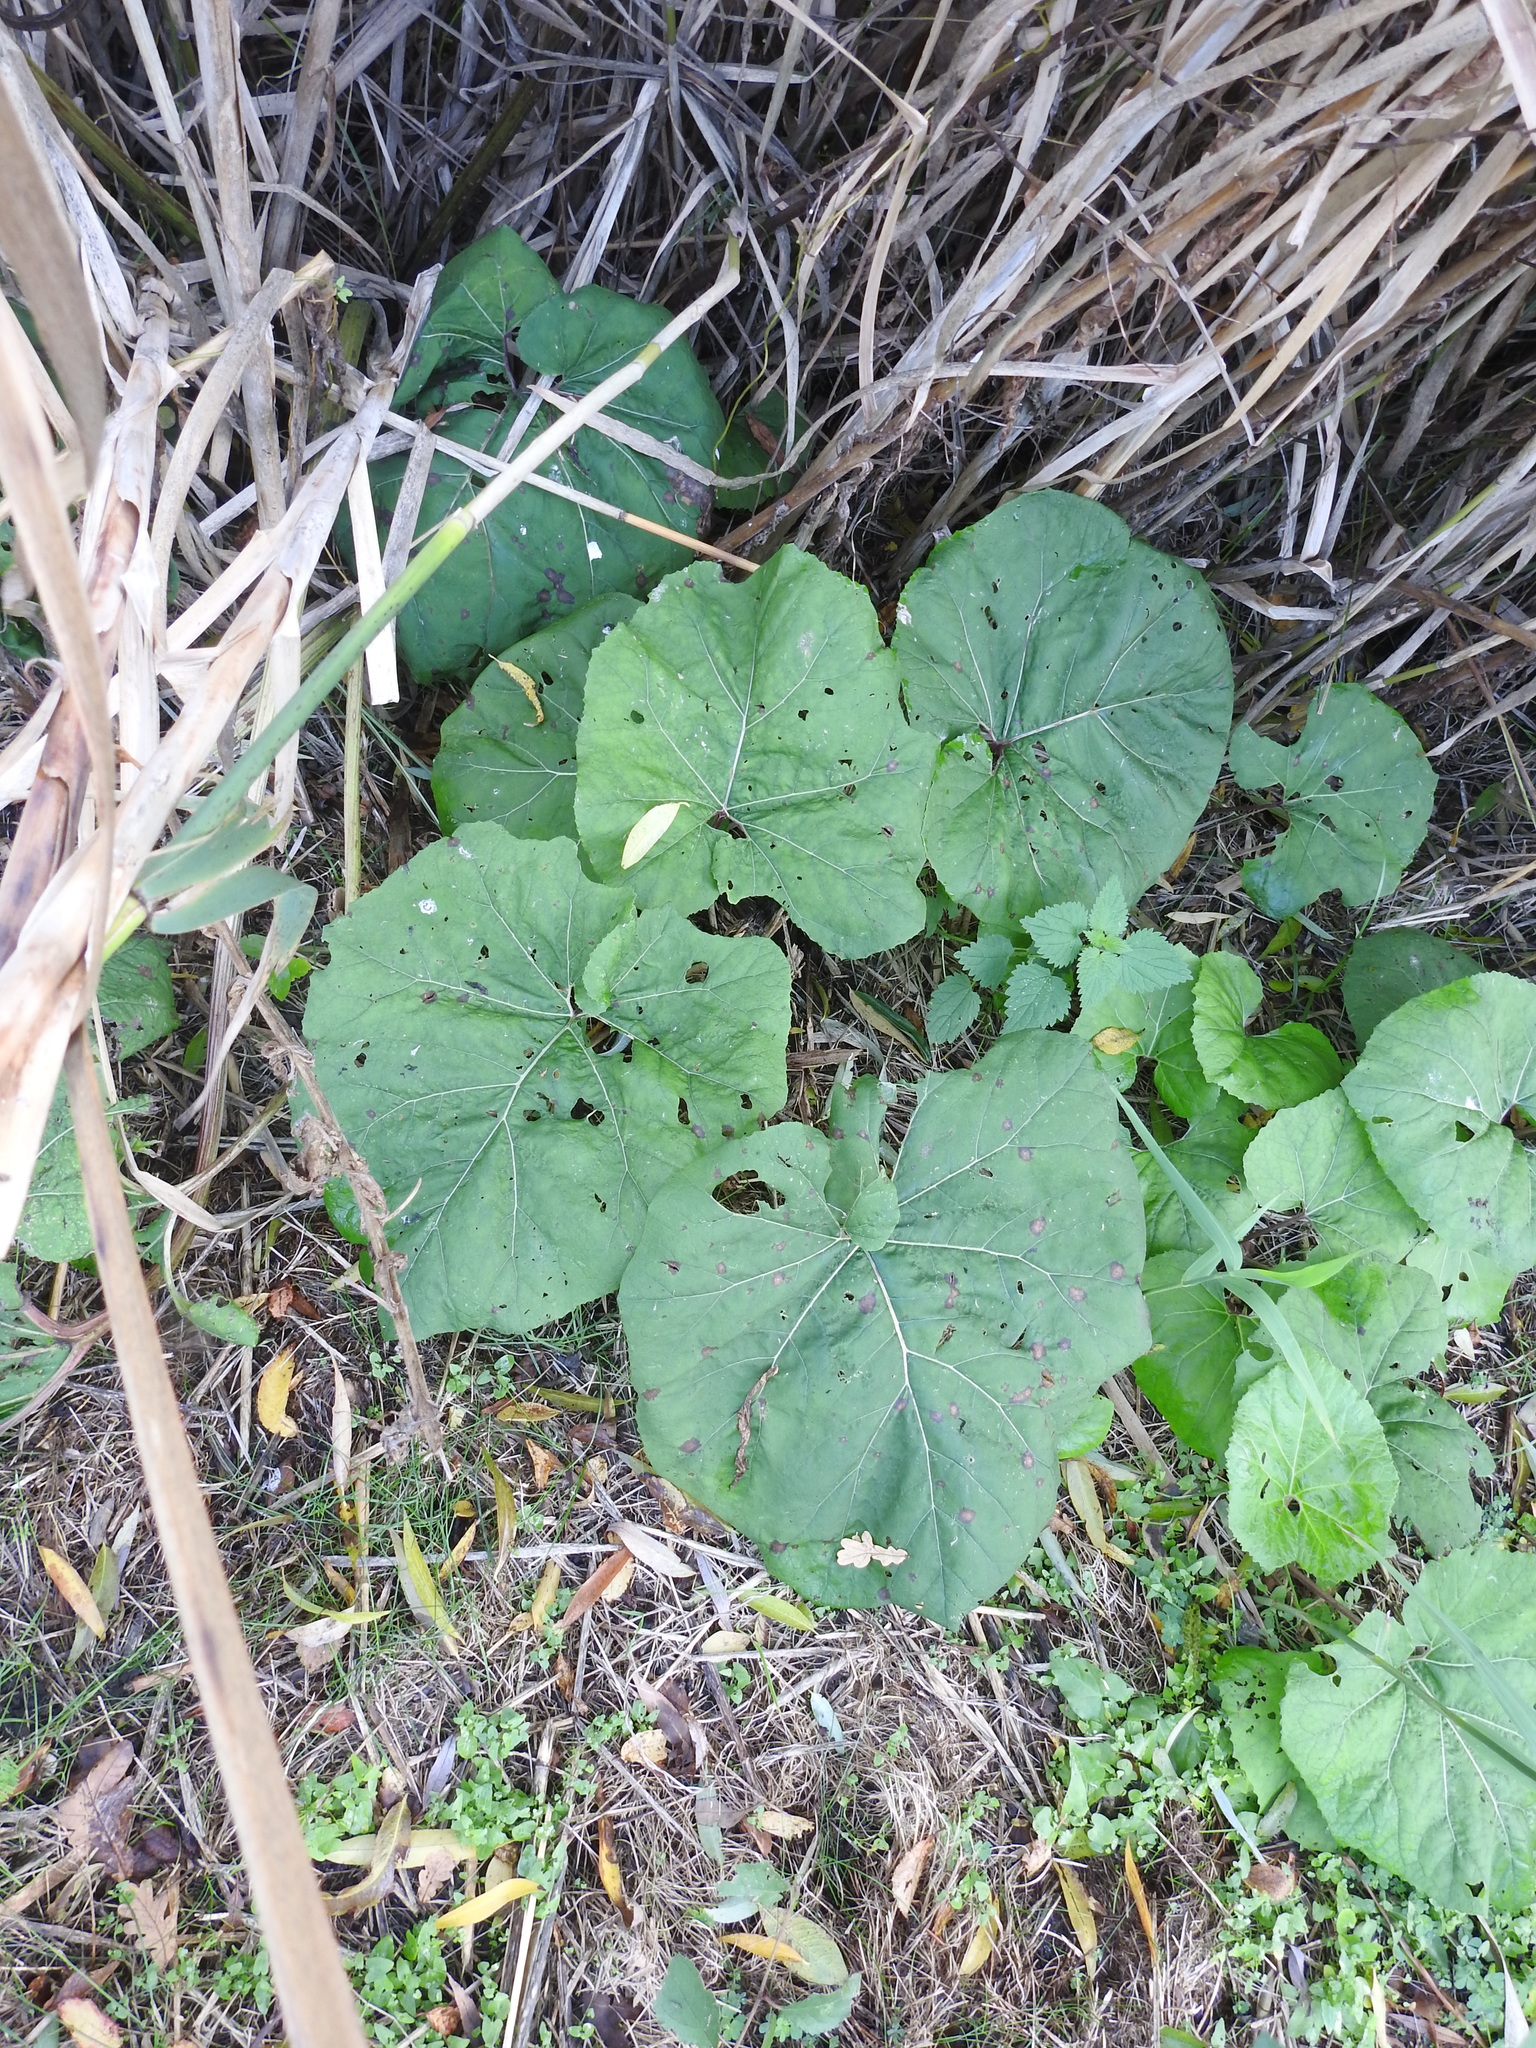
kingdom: Plantae
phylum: Tracheophyta
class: Magnoliopsida
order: Asterales
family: Asteraceae
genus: Petasites
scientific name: Petasites hybridus
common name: Butterbur
